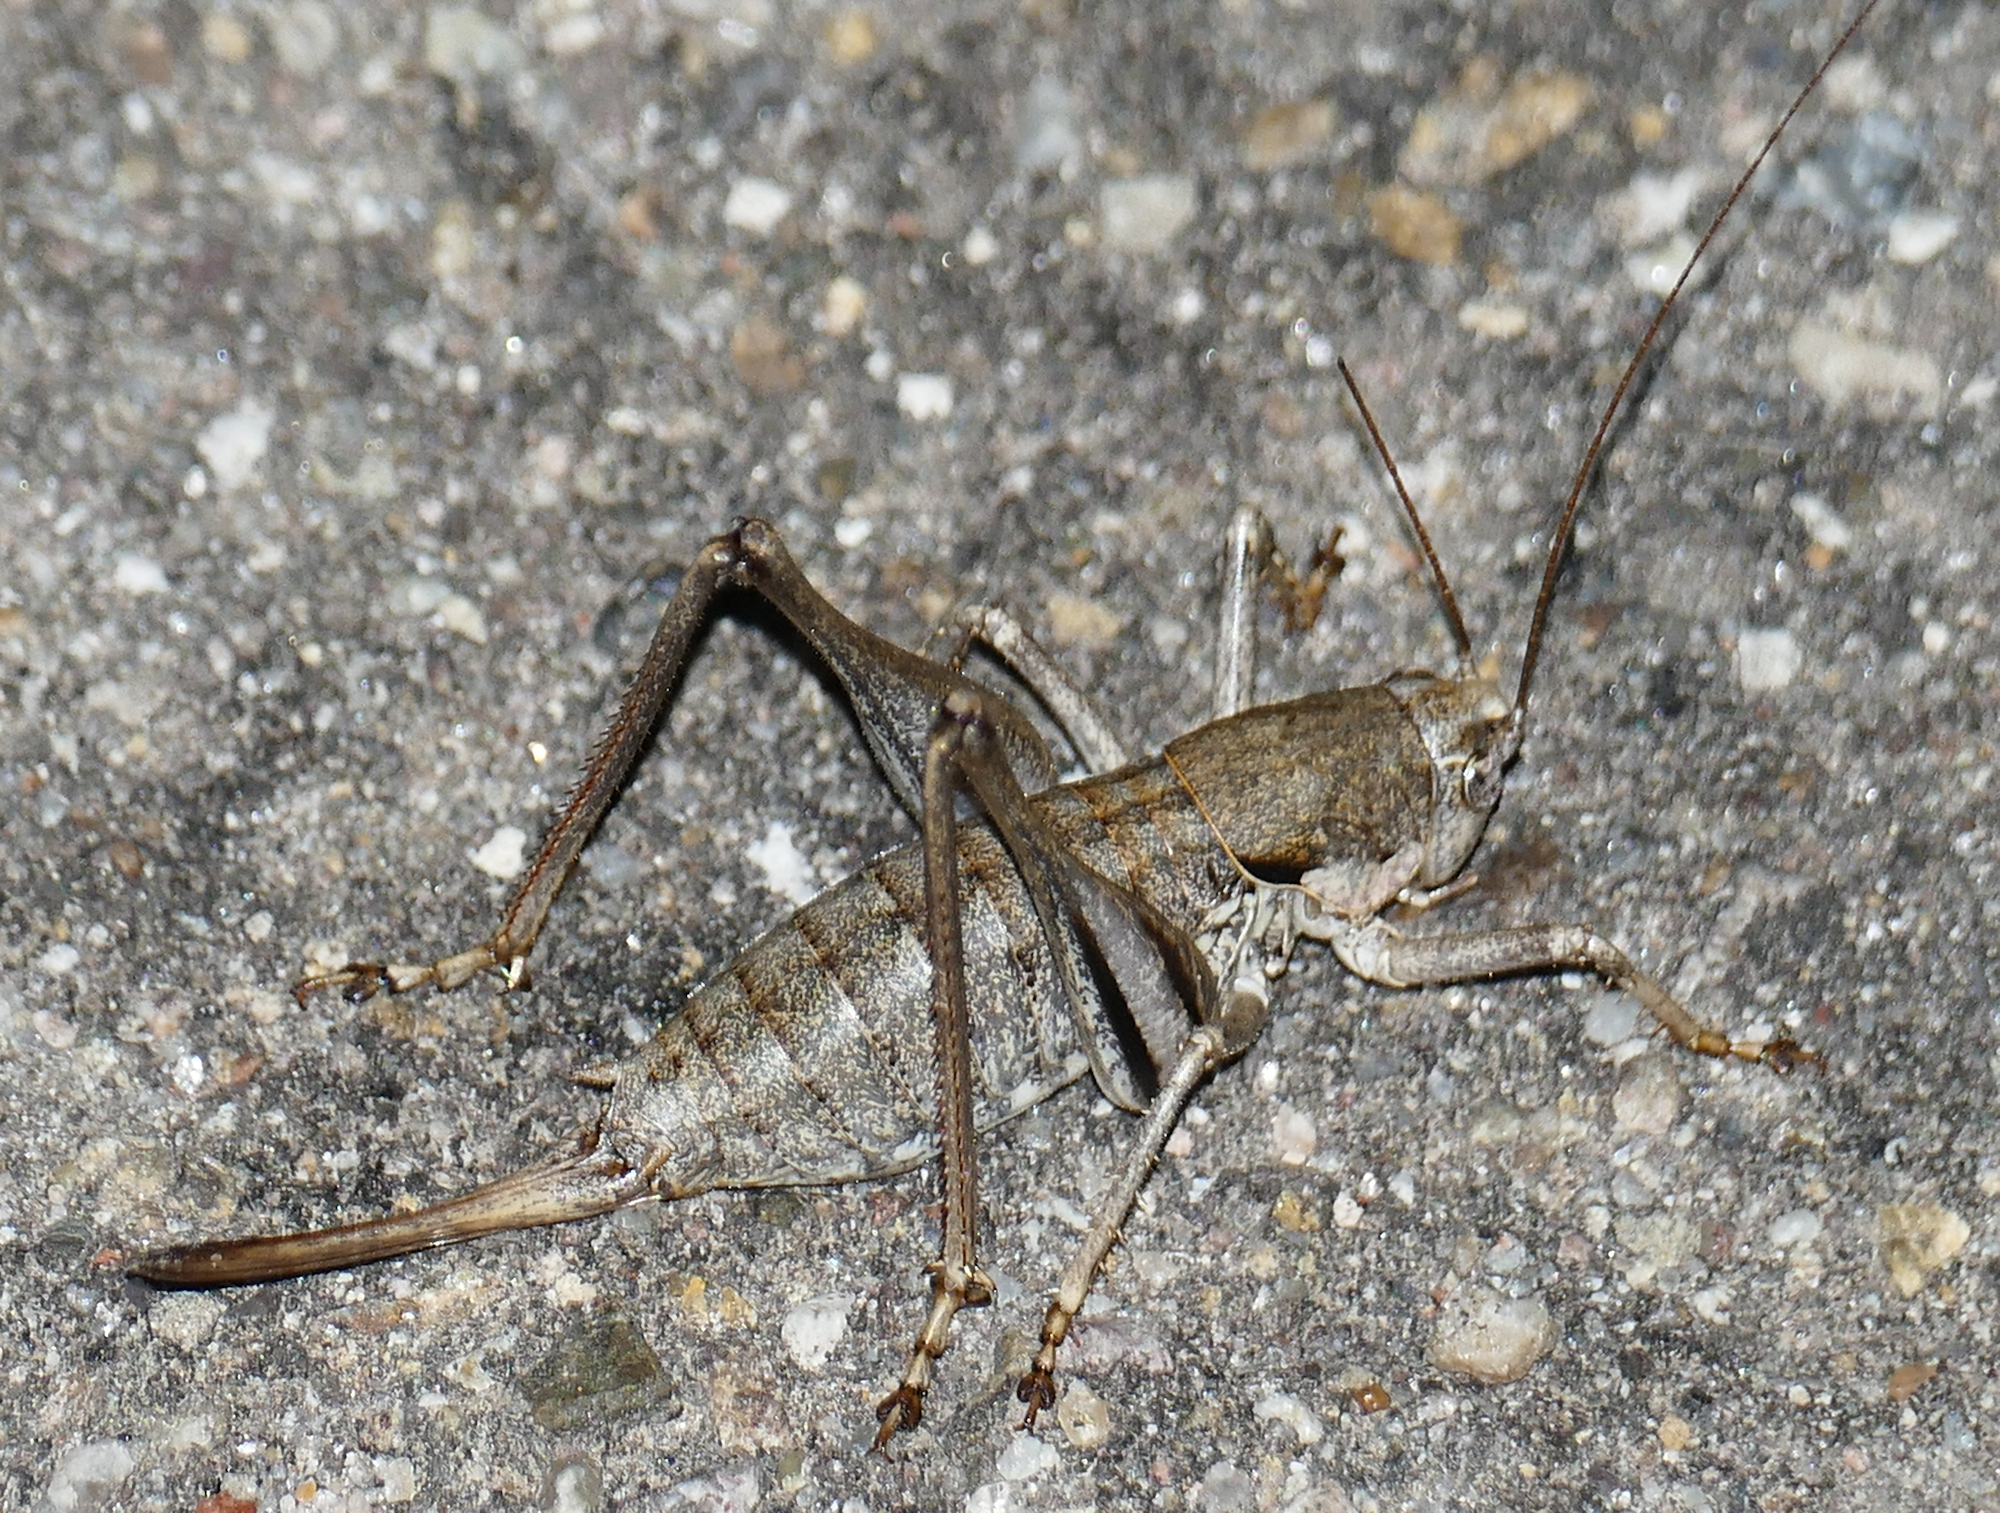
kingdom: Animalia
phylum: Arthropoda
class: Insecta
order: Orthoptera
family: Tettigoniidae
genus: Eremopedes
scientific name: Eremopedes balli
